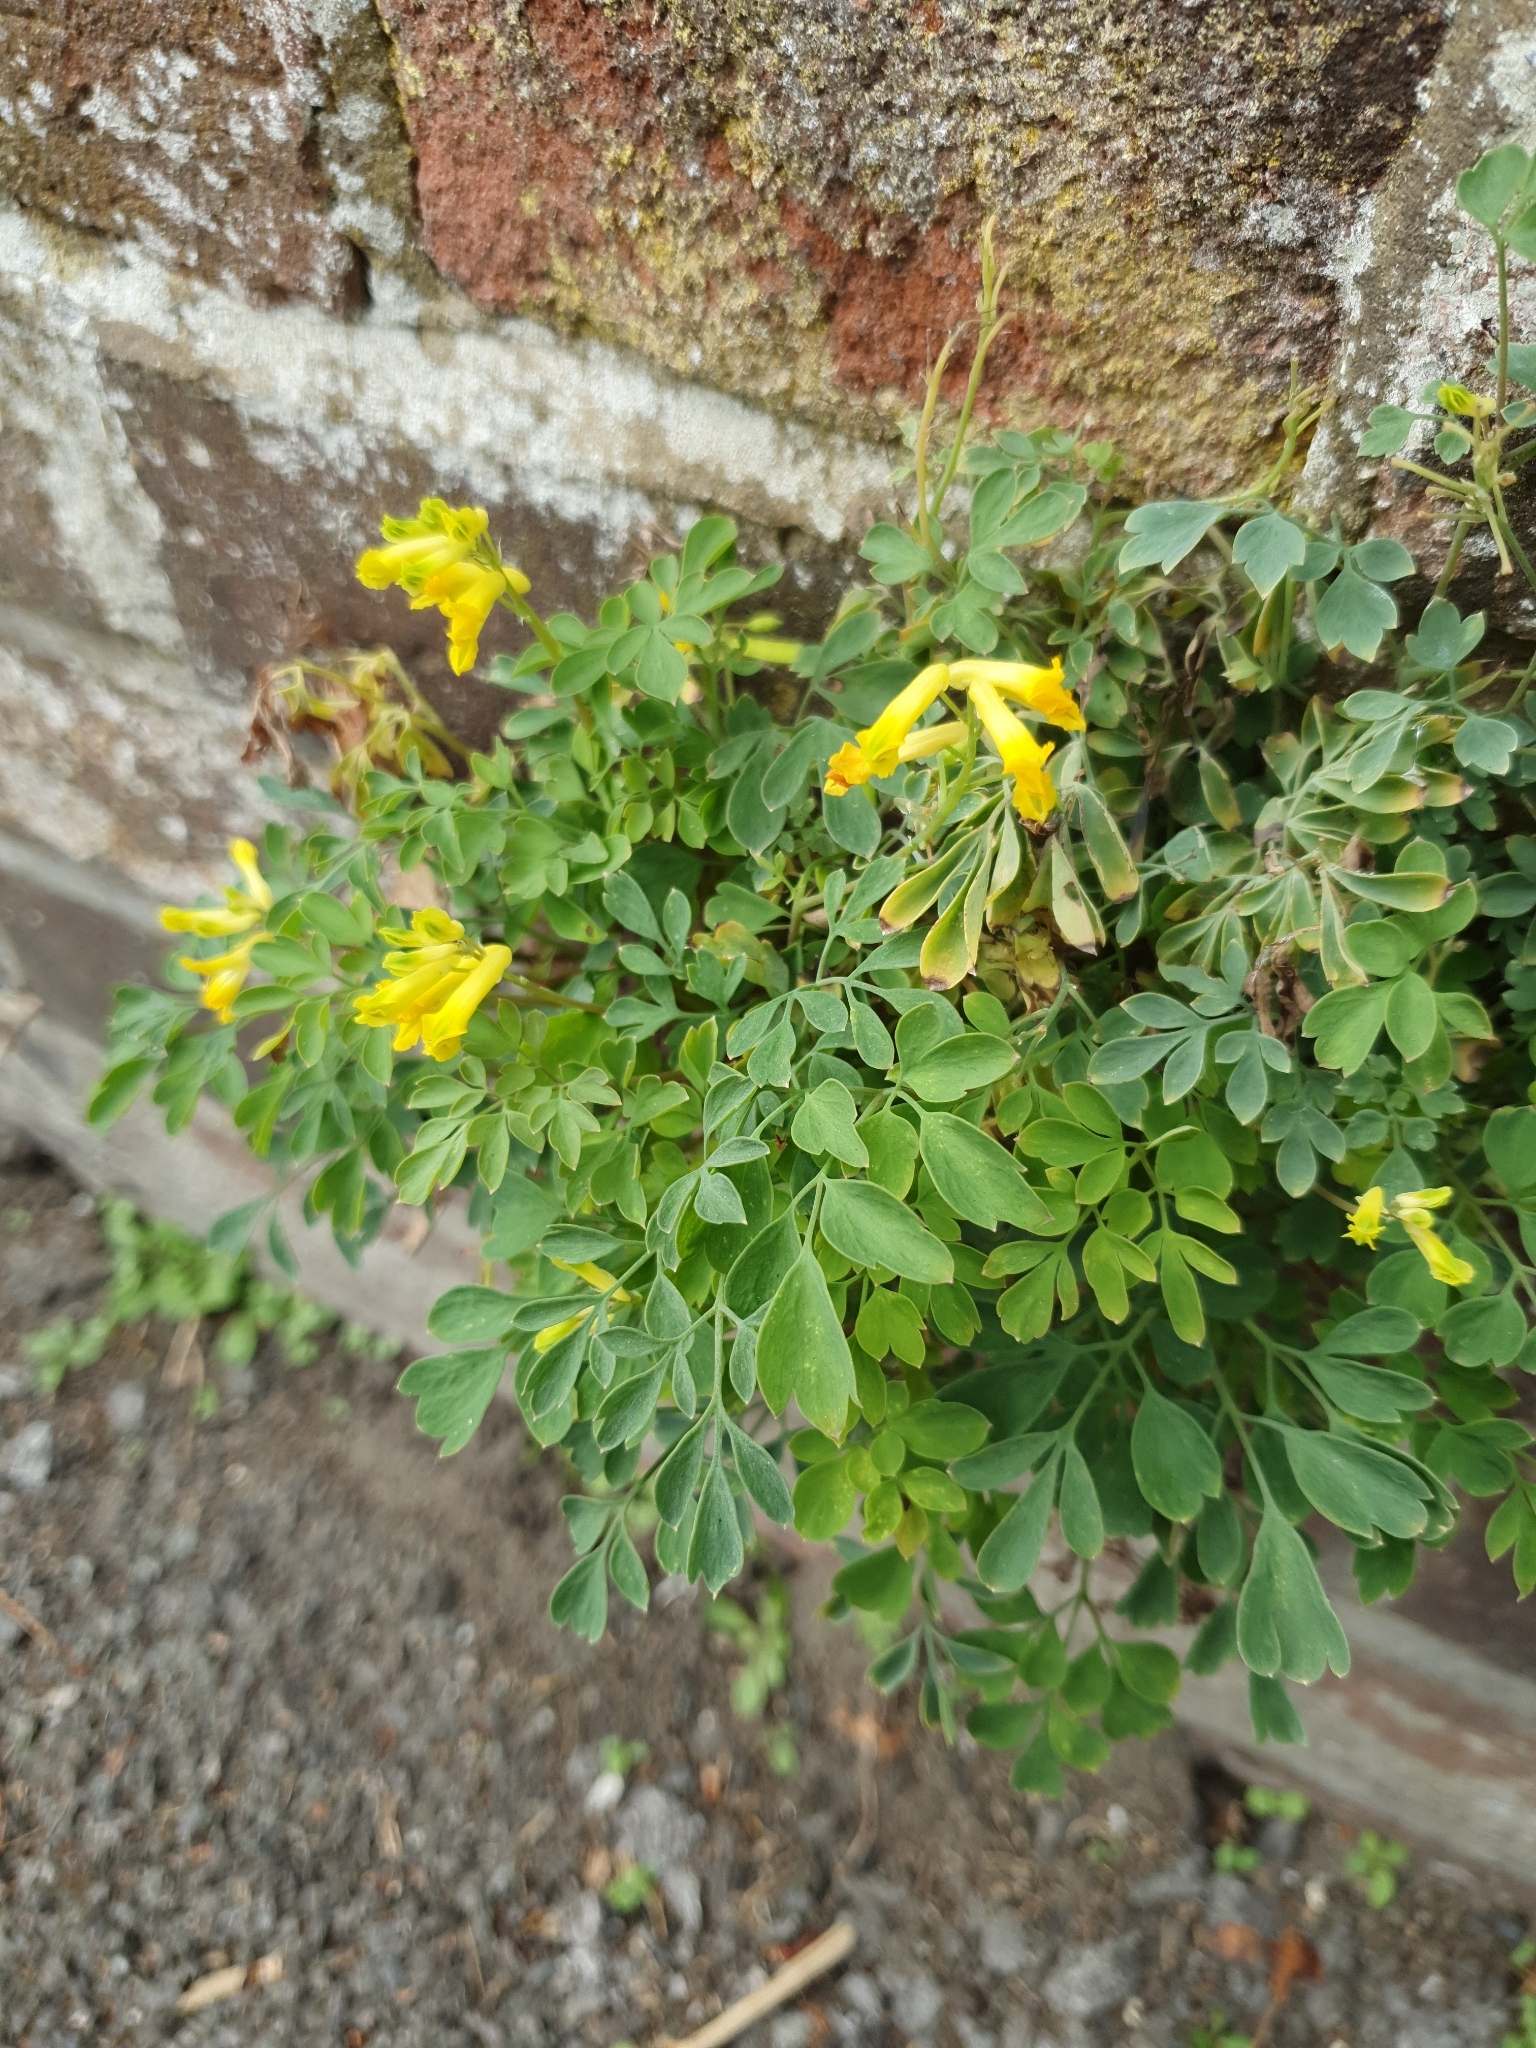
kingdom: Plantae
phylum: Tracheophyta
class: Magnoliopsida
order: Ranunculales
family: Papaveraceae
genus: Pseudofumaria
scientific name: Pseudofumaria lutea
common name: Yellow corydalis
